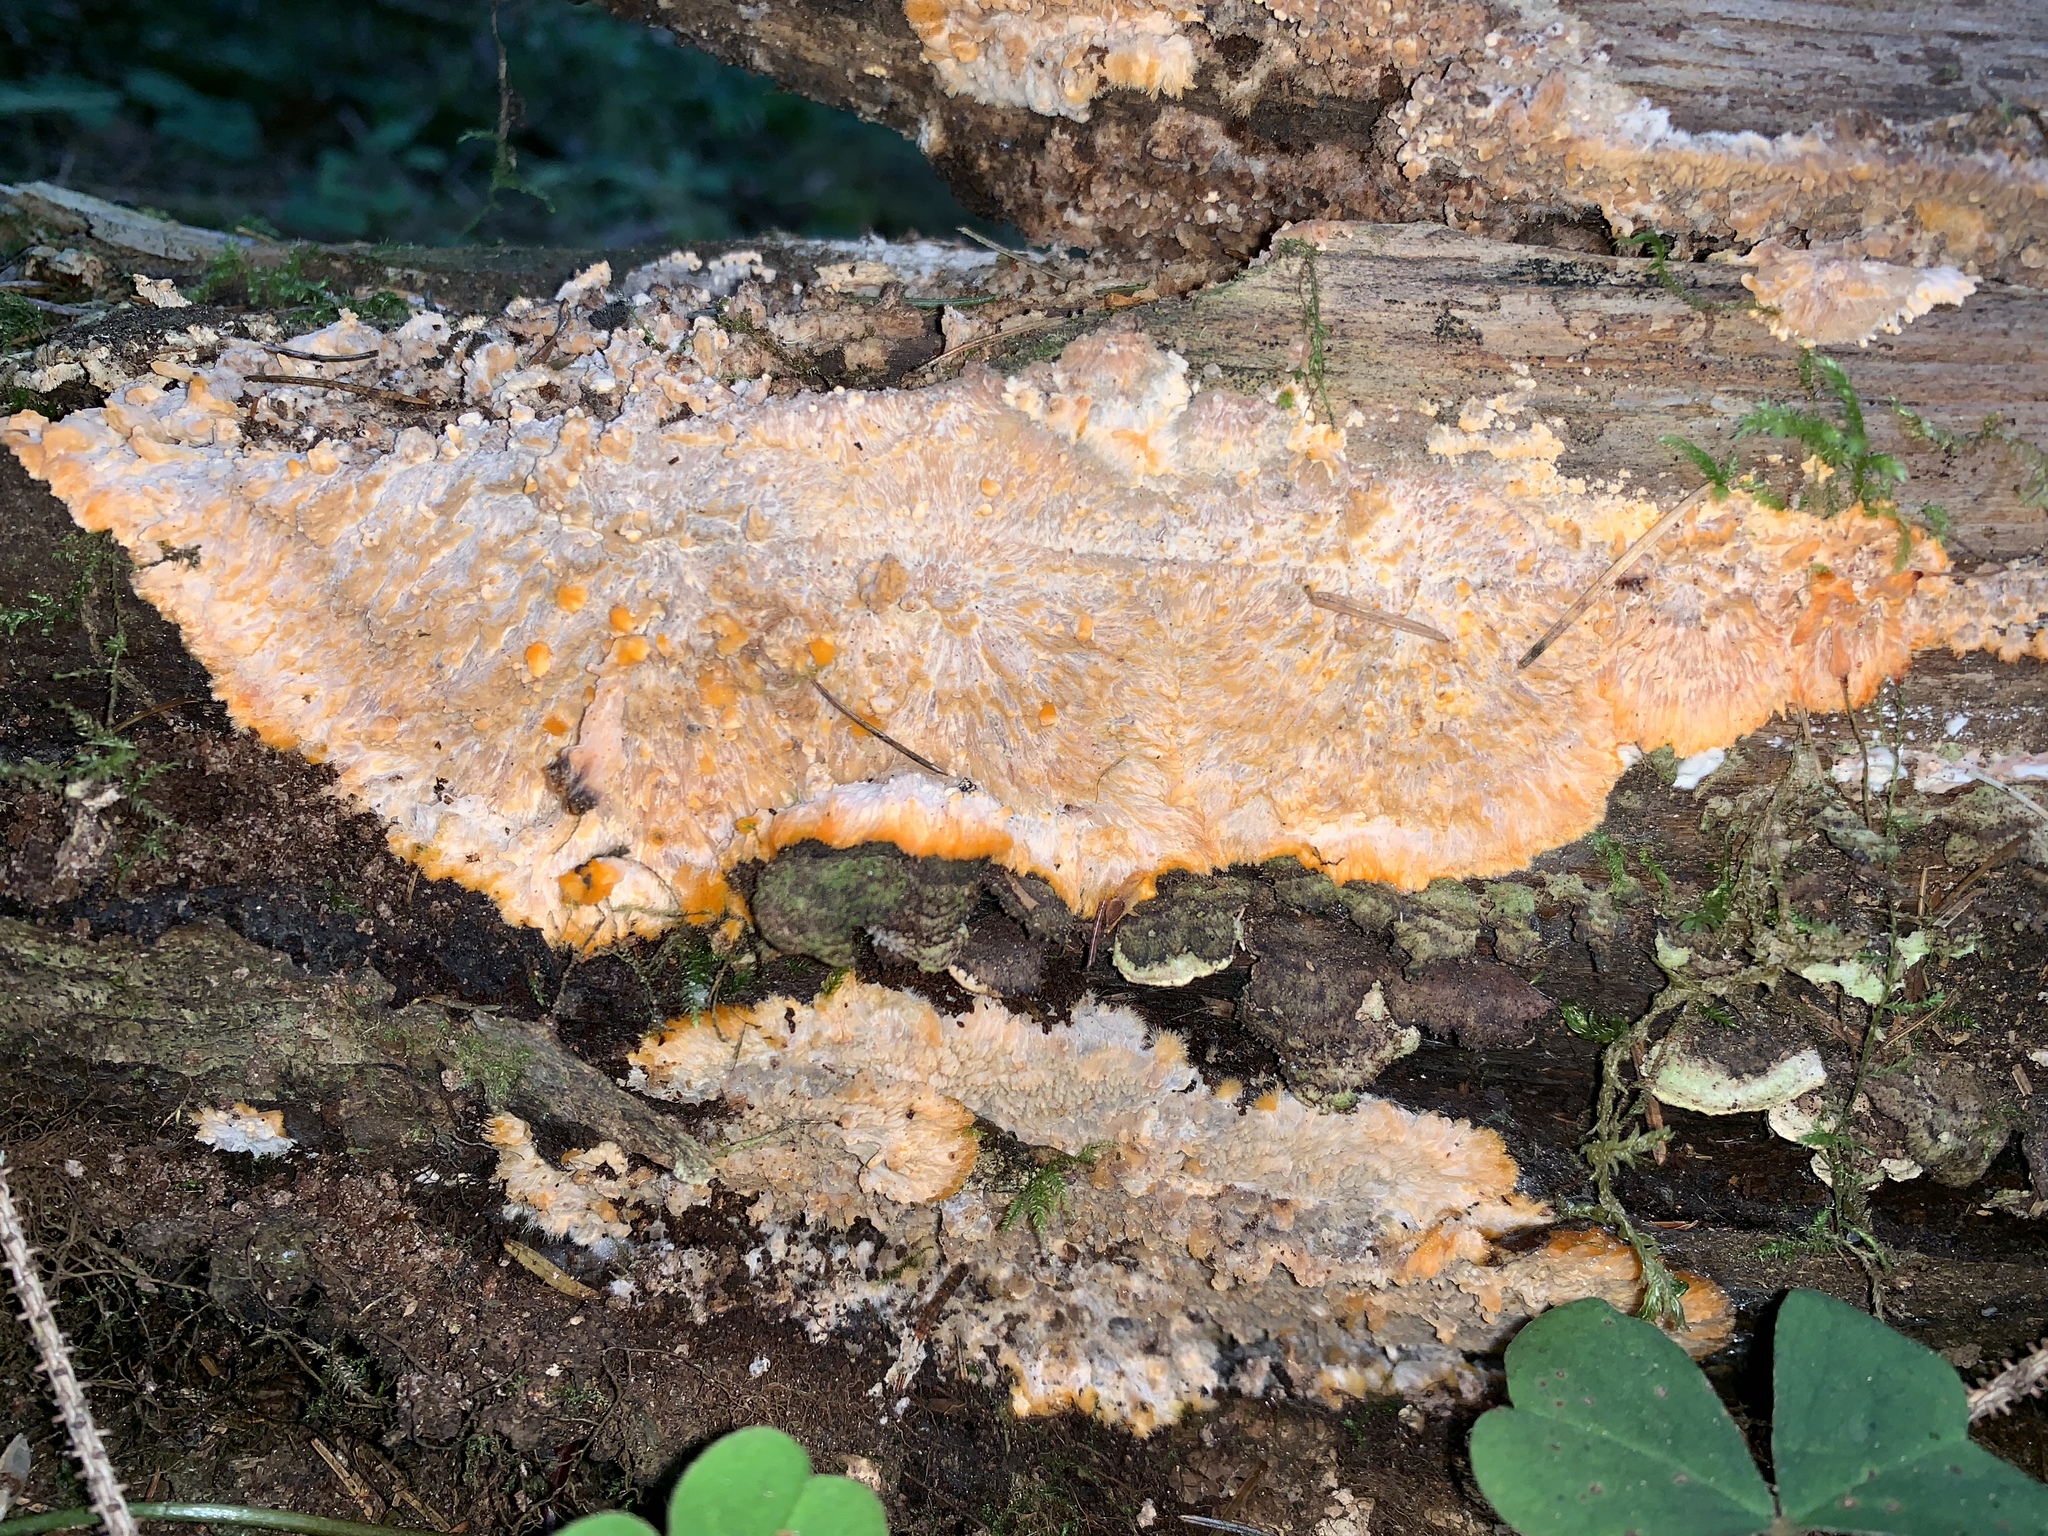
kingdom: Fungi
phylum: Basidiomycota
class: Agaricomycetes
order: Polyporales
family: Meruliaceae
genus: Phlebia
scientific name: Phlebia radiata
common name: Wrinkled crust
